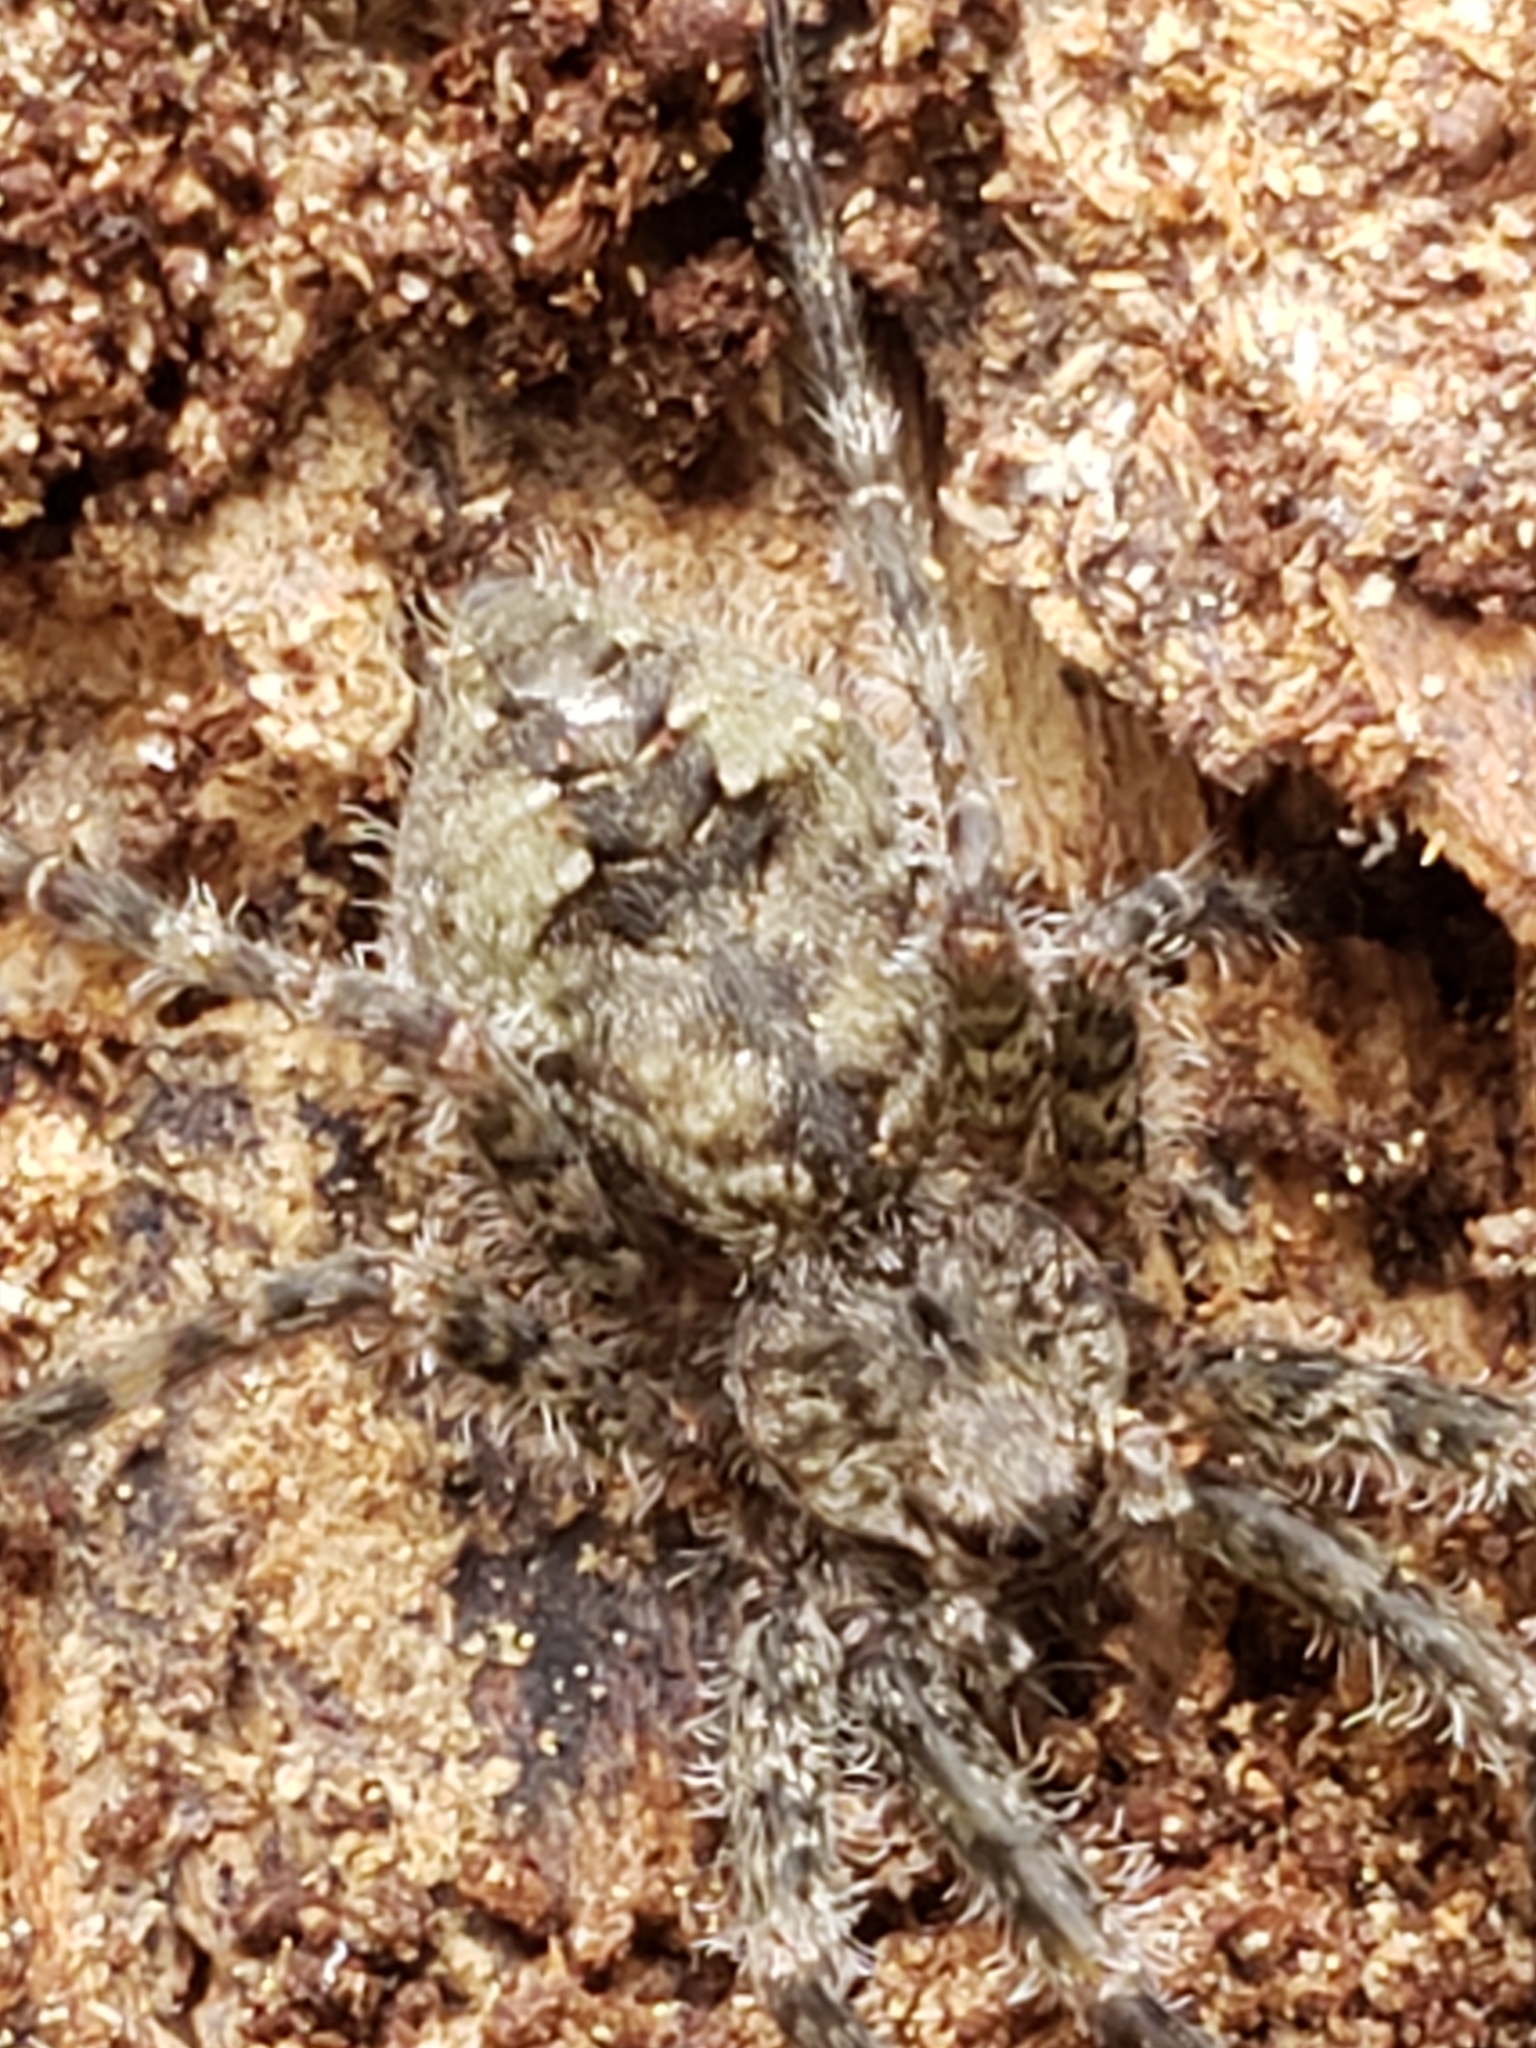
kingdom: Animalia
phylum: Arthropoda
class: Arachnida
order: Araneae
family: Pisauridae
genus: Dolomedes
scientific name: Dolomedes albineus
